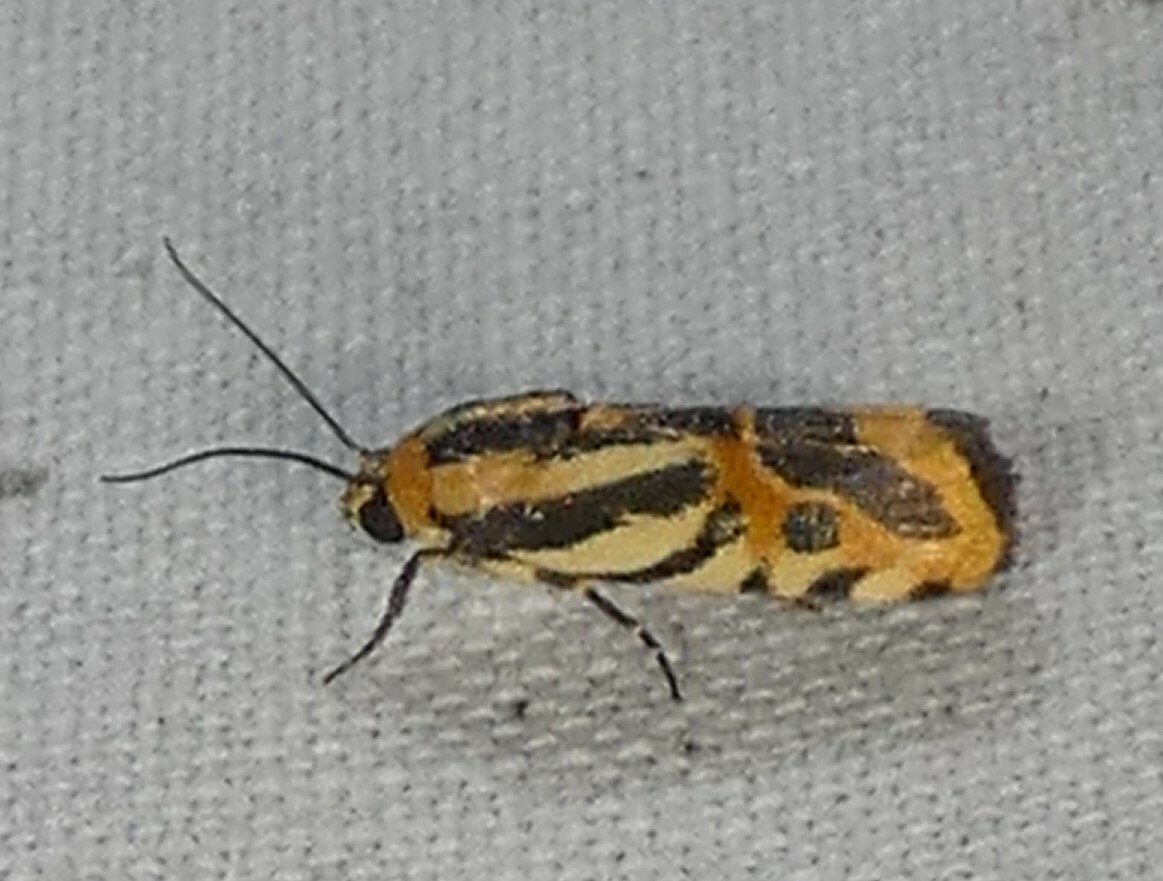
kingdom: Animalia
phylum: Arthropoda
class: Insecta
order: Lepidoptera
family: Noctuidae
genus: Acontia
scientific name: Acontia onagrus
